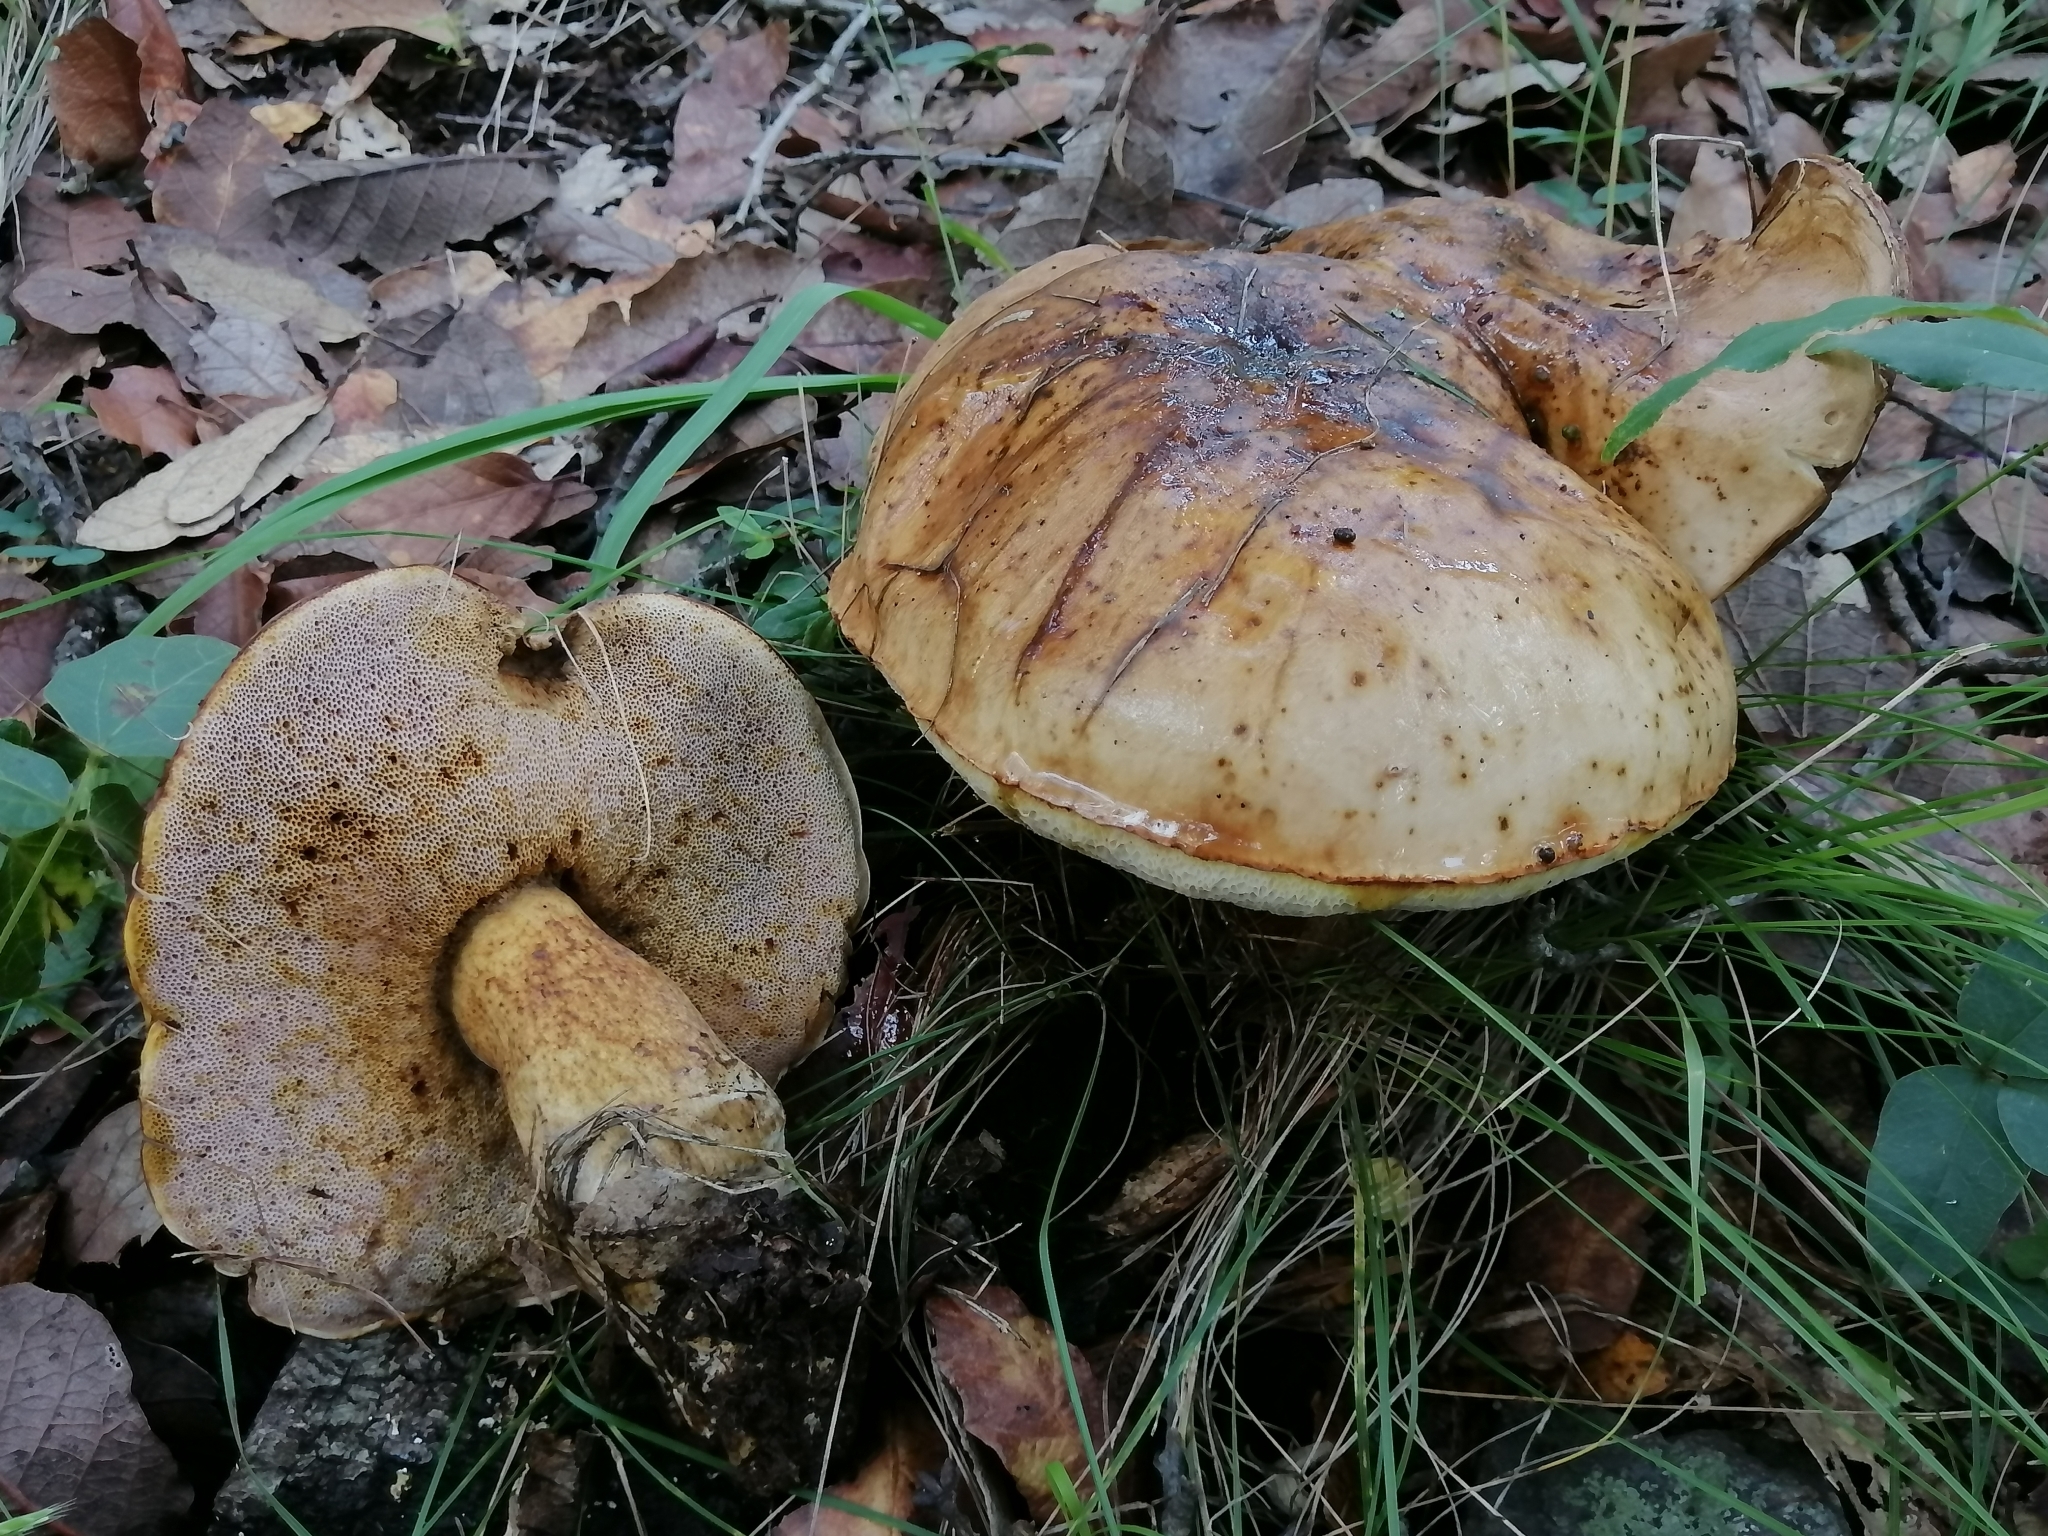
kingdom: Fungi
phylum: Basidiomycota
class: Agaricomycetes
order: Boletales
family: Boletaceae
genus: Fistulinella
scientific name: Fistulinella wolfeana
